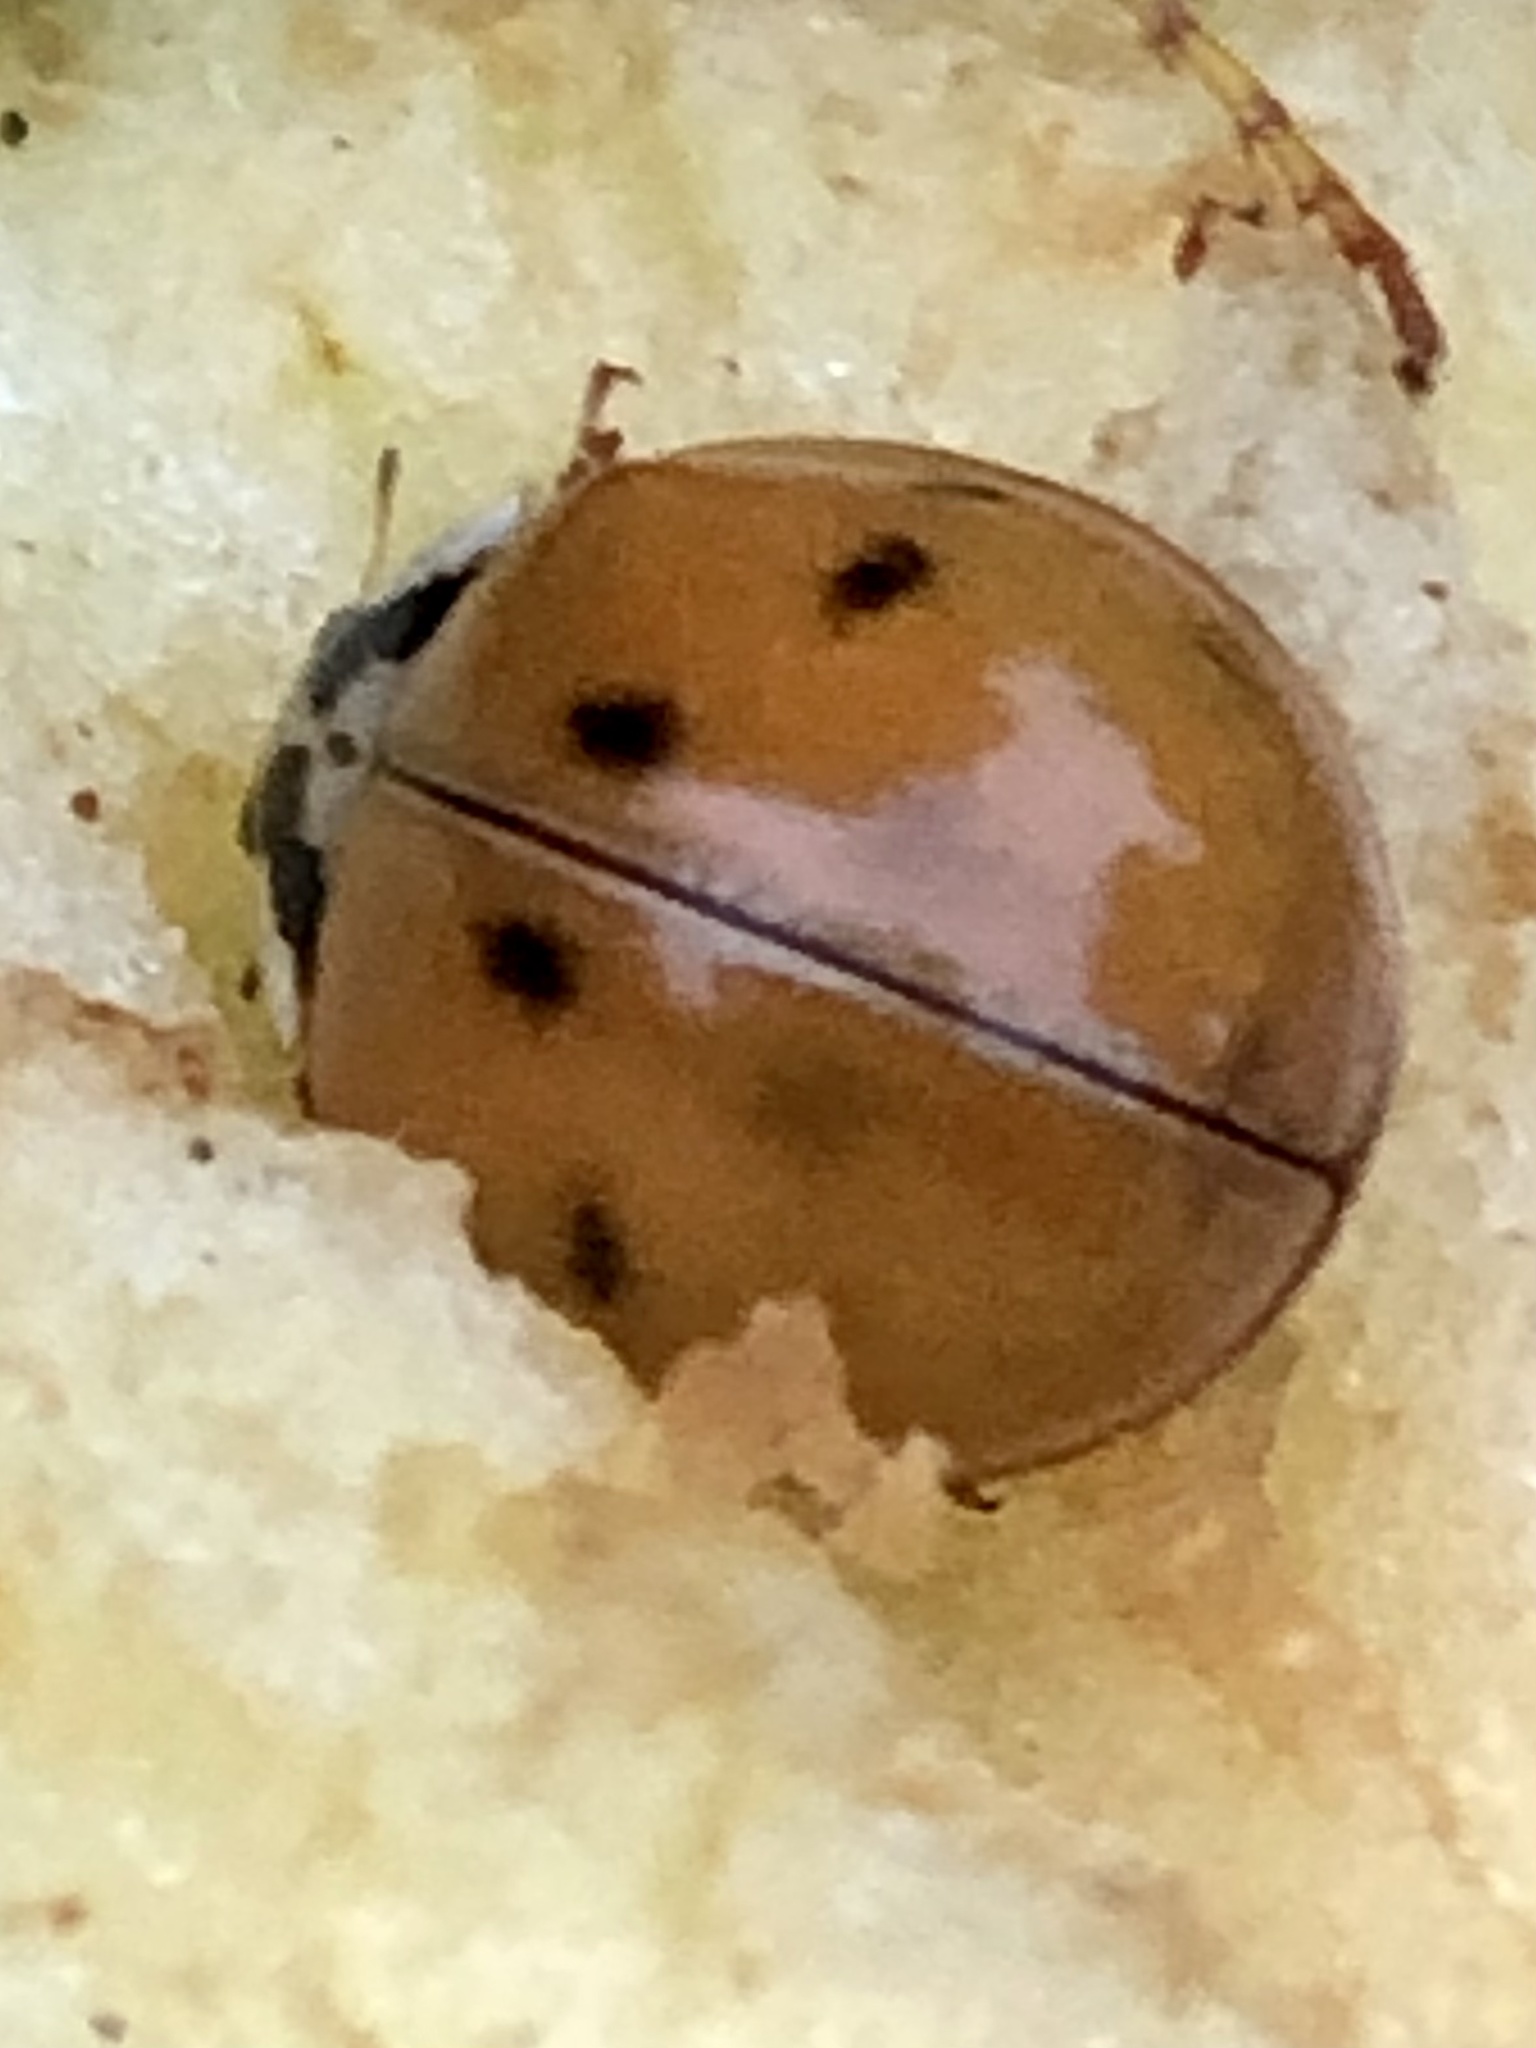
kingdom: Animalia
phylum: Arthropoda
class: Insecta
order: Coleoptera
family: Coccinellidae
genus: Harmonia
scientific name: Harmonia axyridis
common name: Harlequin ladybird
